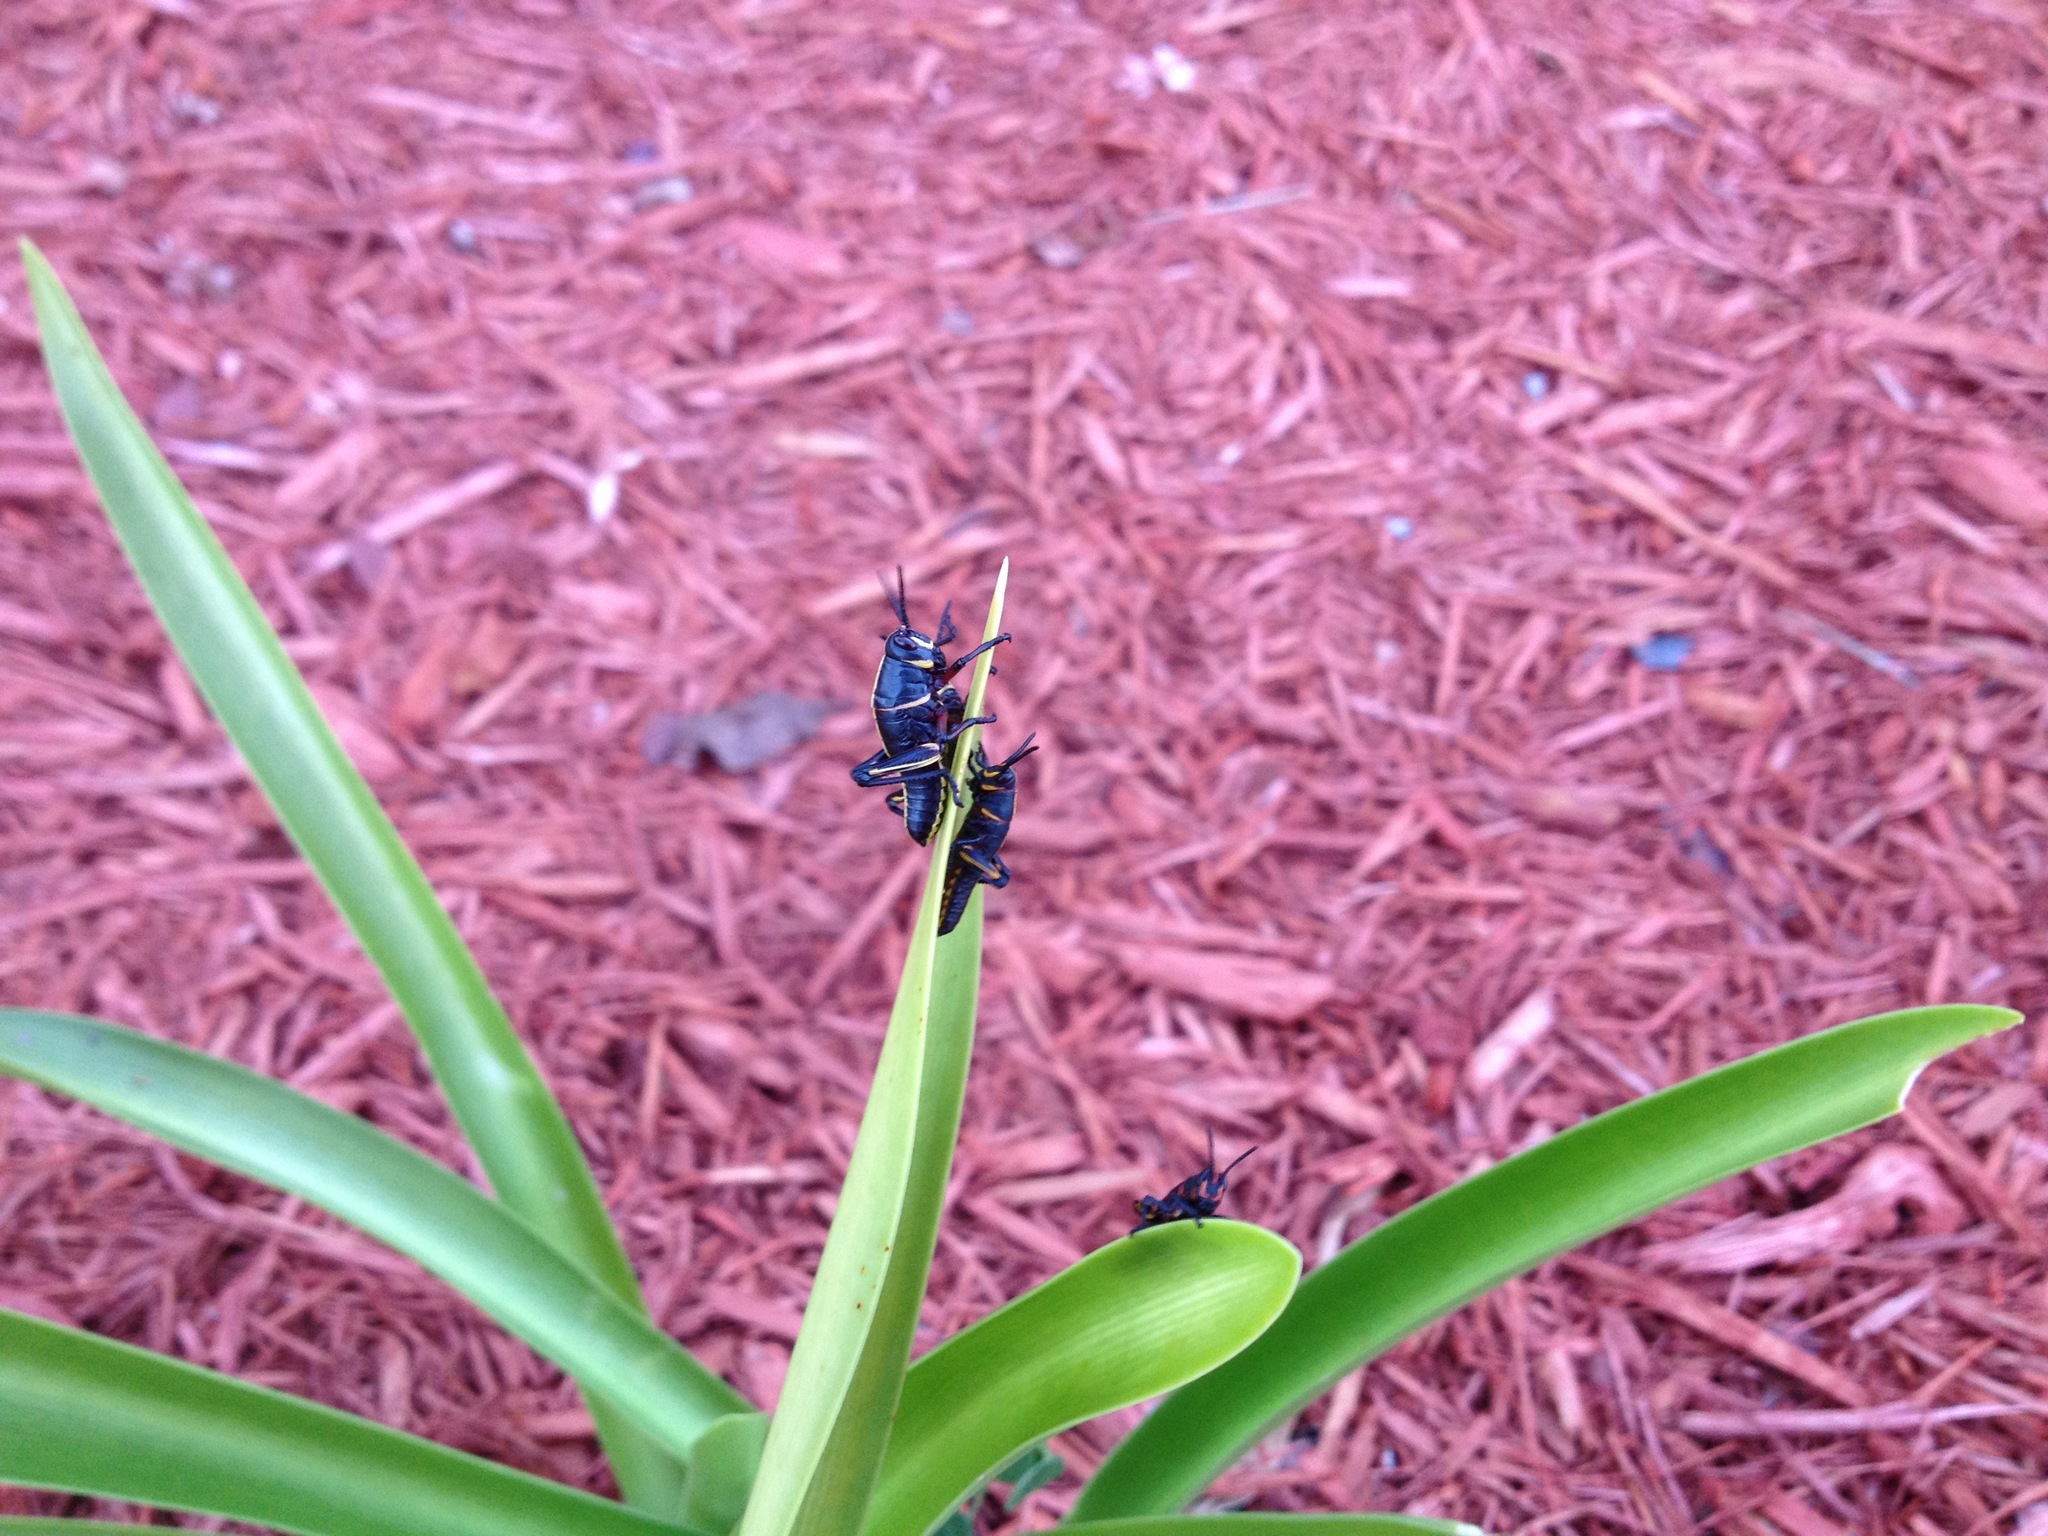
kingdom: Animalia
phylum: Arthropoda
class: Insecta
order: Orthoptera
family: Romaleidae
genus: Romalea
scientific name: Romalea microptera
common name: Eastern lubber grasshopper
